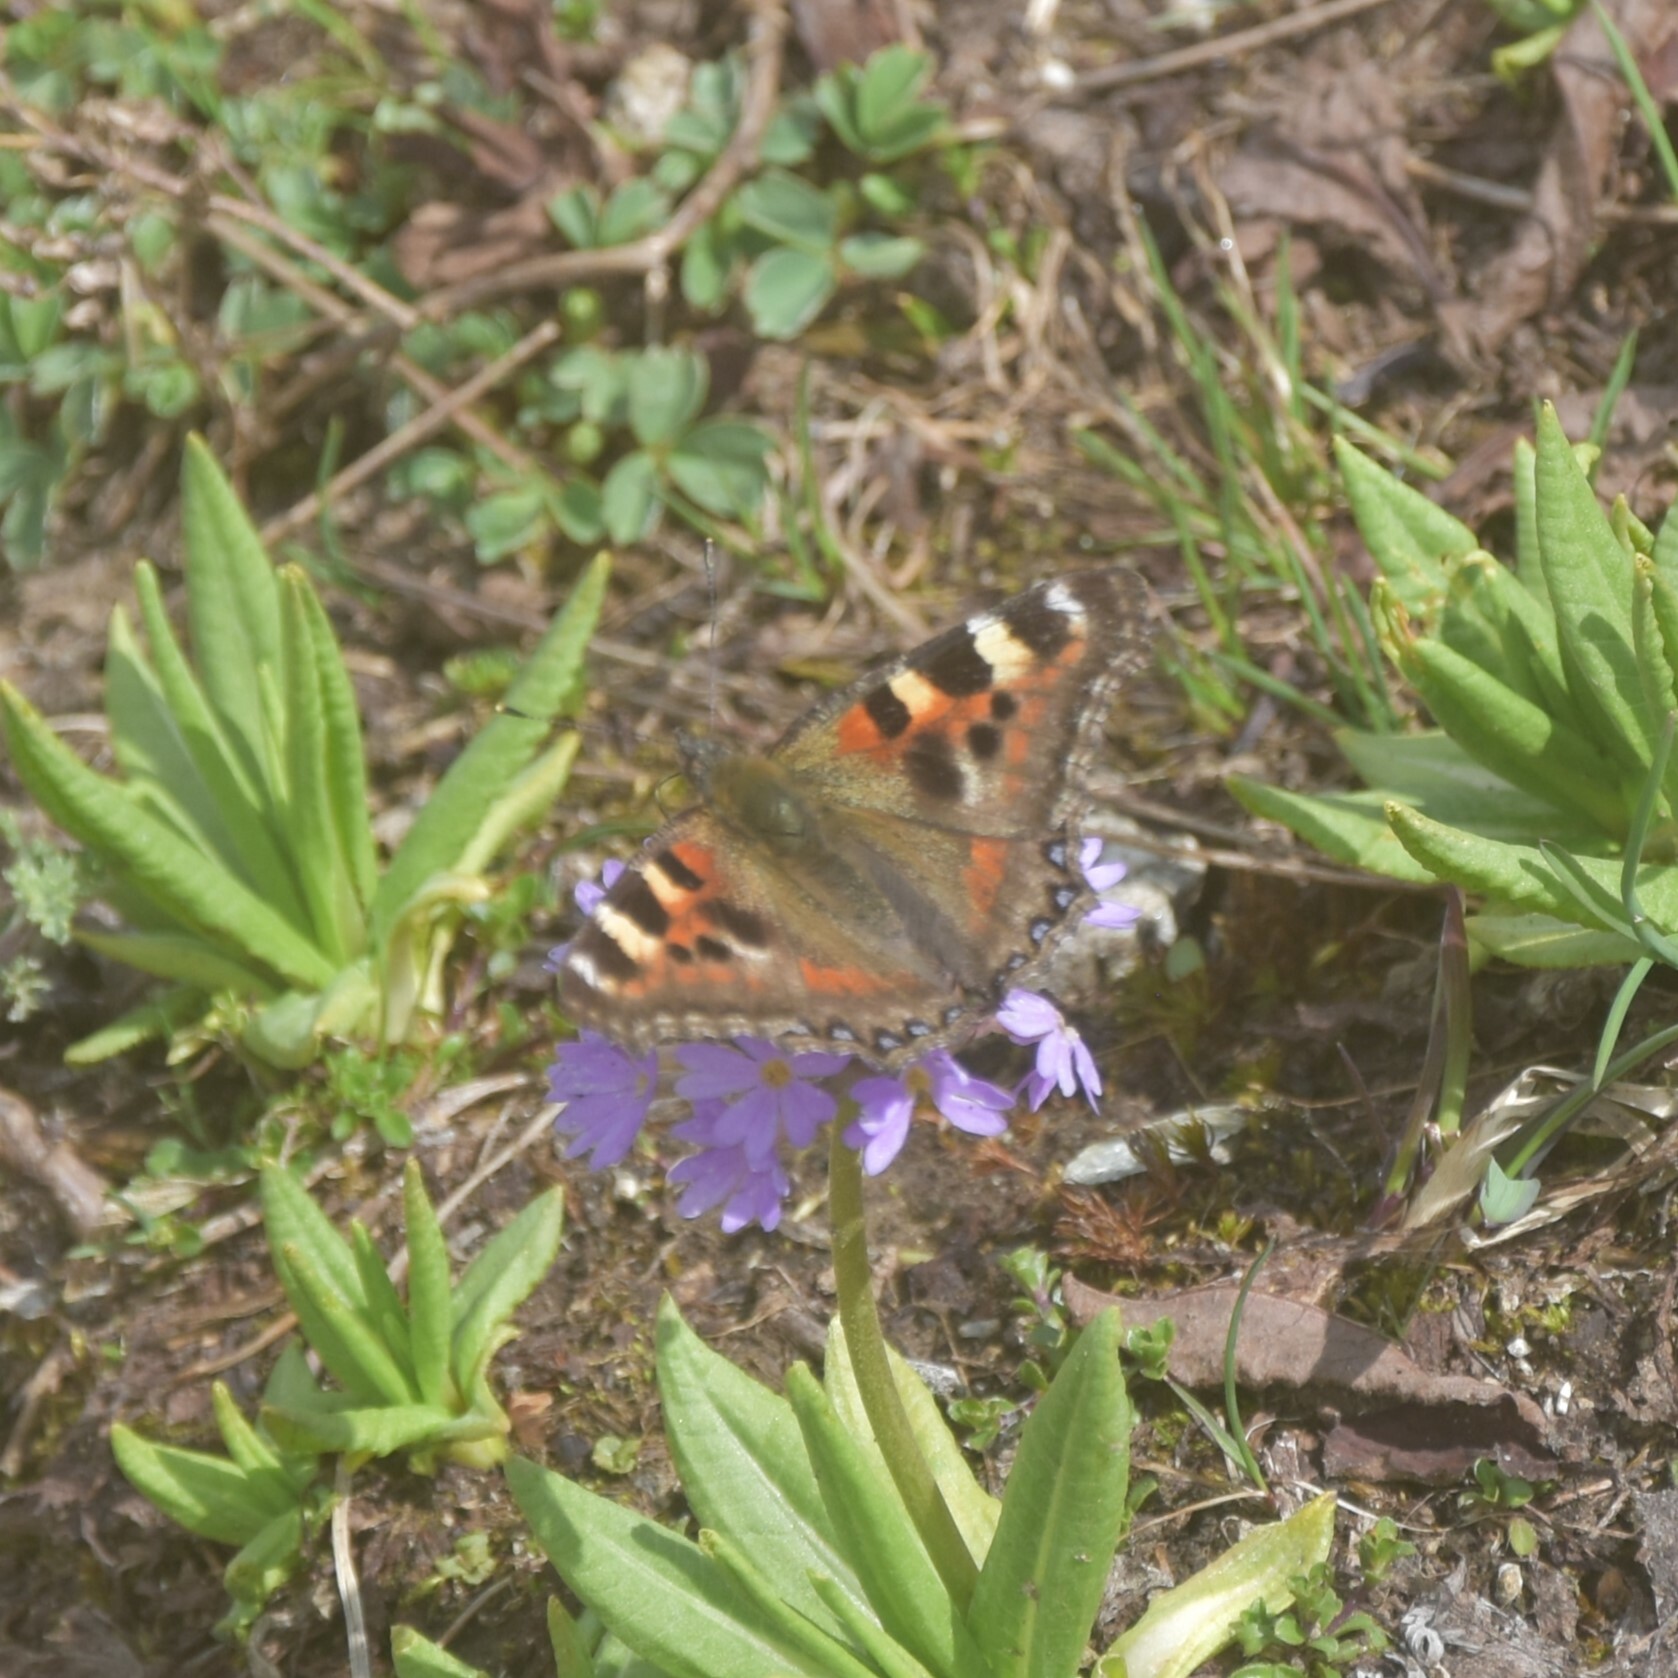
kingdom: Animalia
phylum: Arthropoda
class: Insecta
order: Lepidoptera
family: Nymphalidae
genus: Aglais
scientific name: Aglais caschmirensis
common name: Indian tortoiseshell
